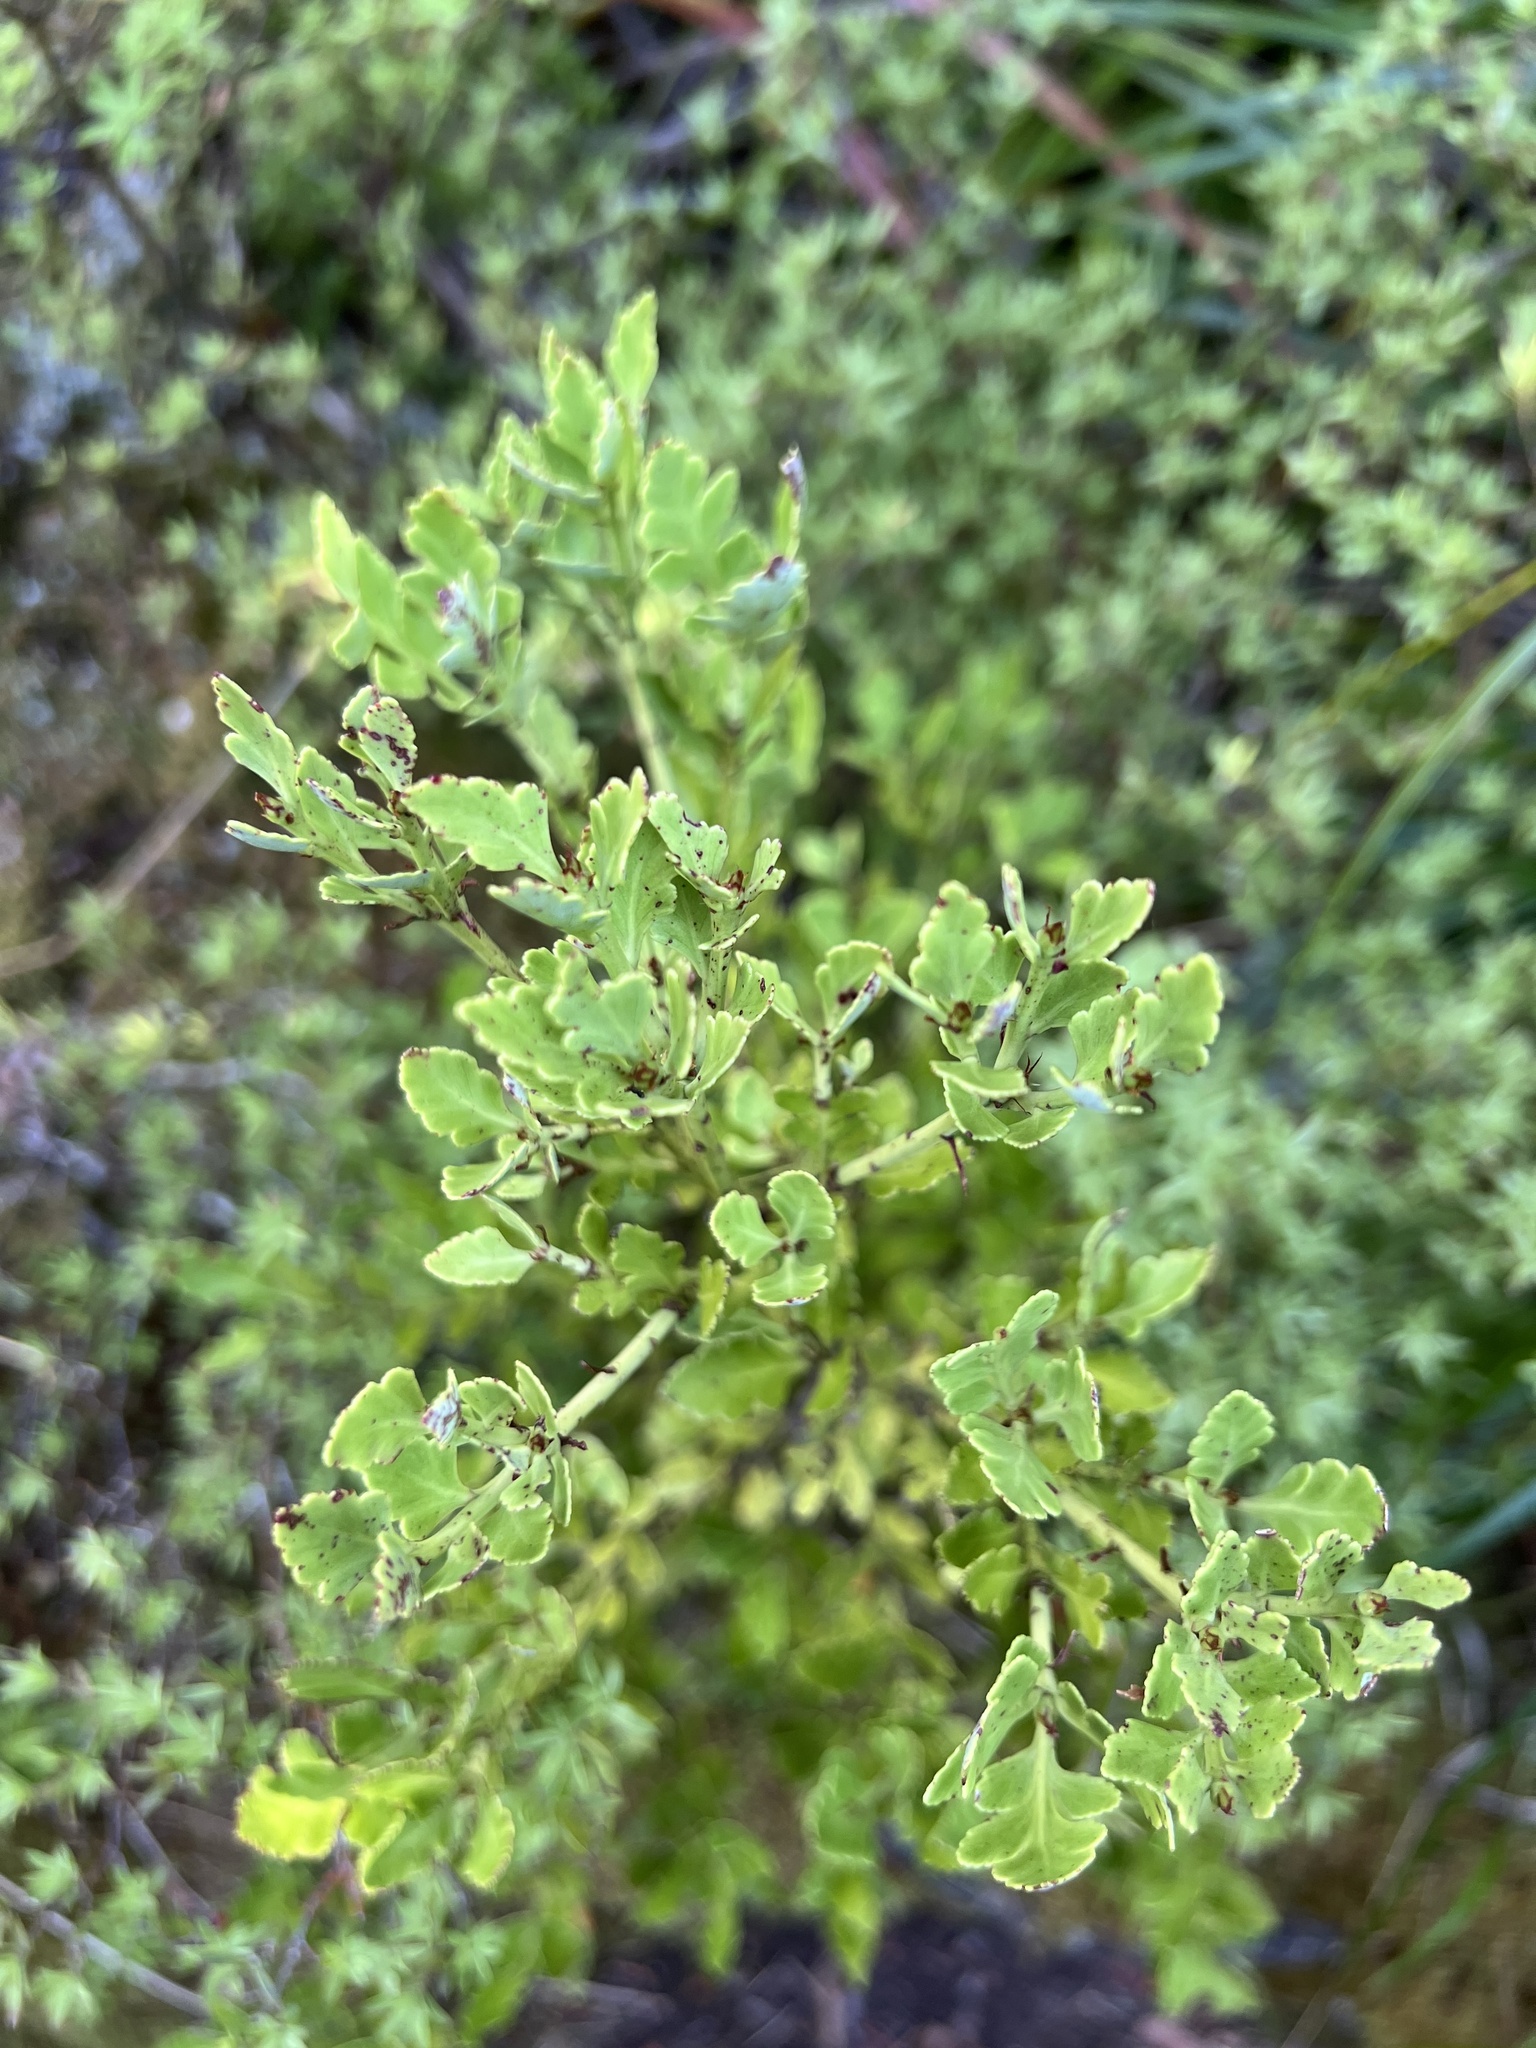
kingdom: Plantae
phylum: Tracheophyta
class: Pinopsida
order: Pinales
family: Phyllocladaceae
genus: Phyllocladus
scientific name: Phyllocladus trichomanoides
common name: Celery pine
